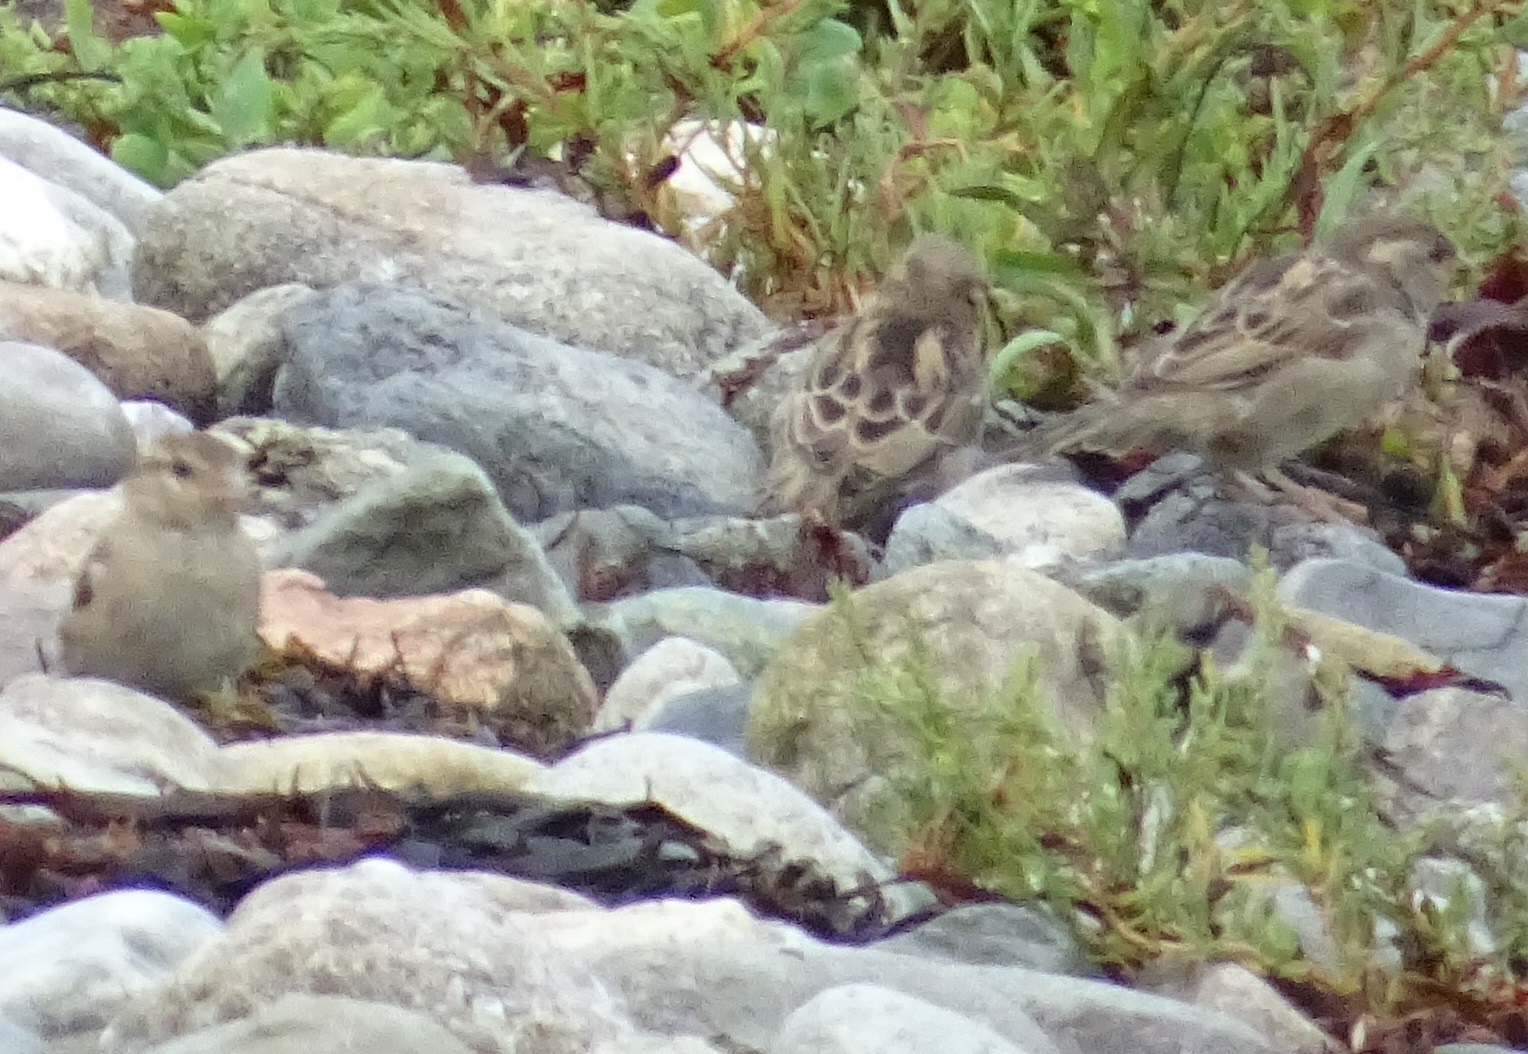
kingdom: Animalia
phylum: Chordata
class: Aves
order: Passeriformes
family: Passeridae
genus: Passer
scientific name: Passer domesticus
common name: House sparrow
